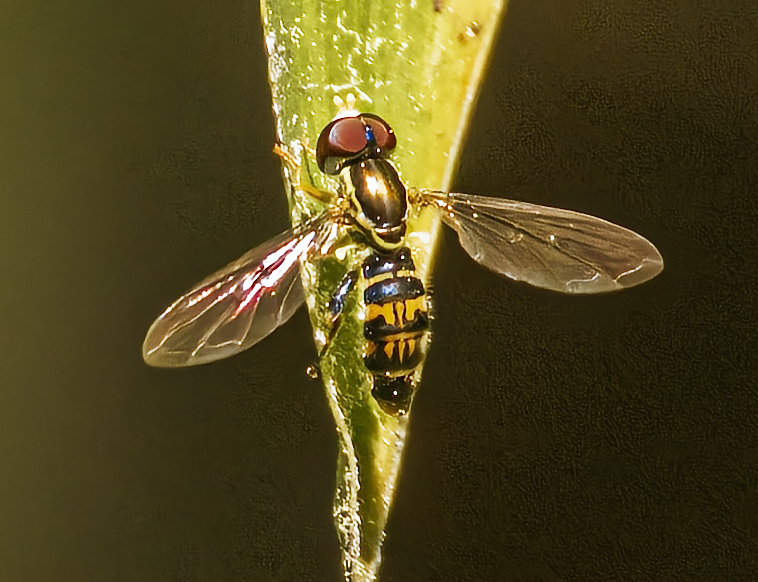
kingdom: Animalia
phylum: Arthropoda
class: Insecta
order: Diptera
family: Syrphidae
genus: Toxomerus
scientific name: Toxomerus geminatus
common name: Eastern calligrapher
